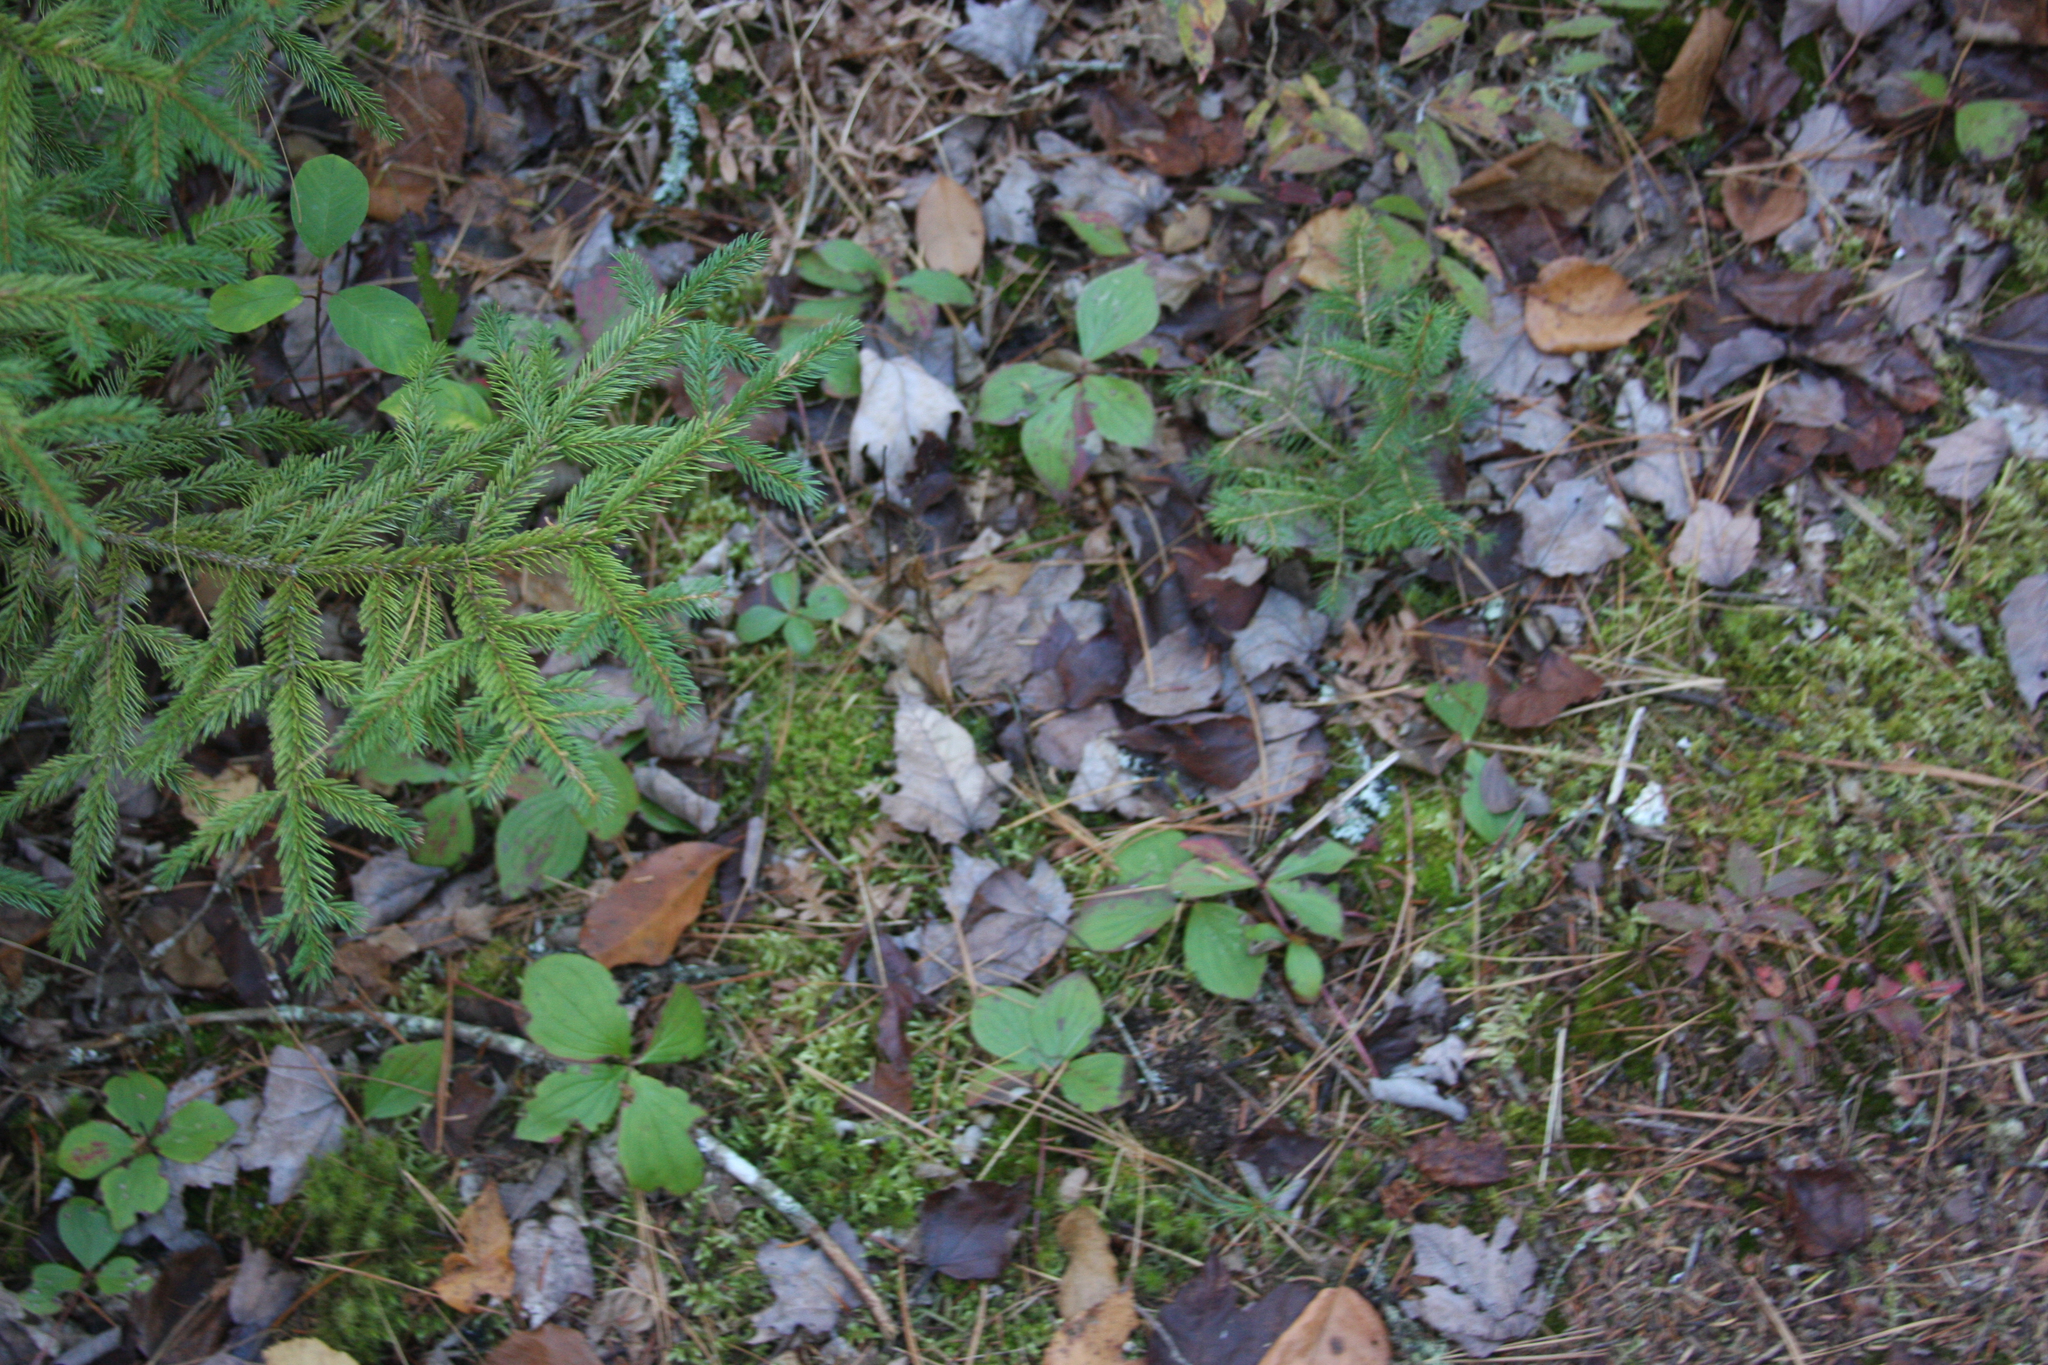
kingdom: Plantae
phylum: Tracheophyta
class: Magnoliopsida
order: Cornales
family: Cornaceae
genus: Cornus
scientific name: Cornus canadensis
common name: Creeping dogwood
